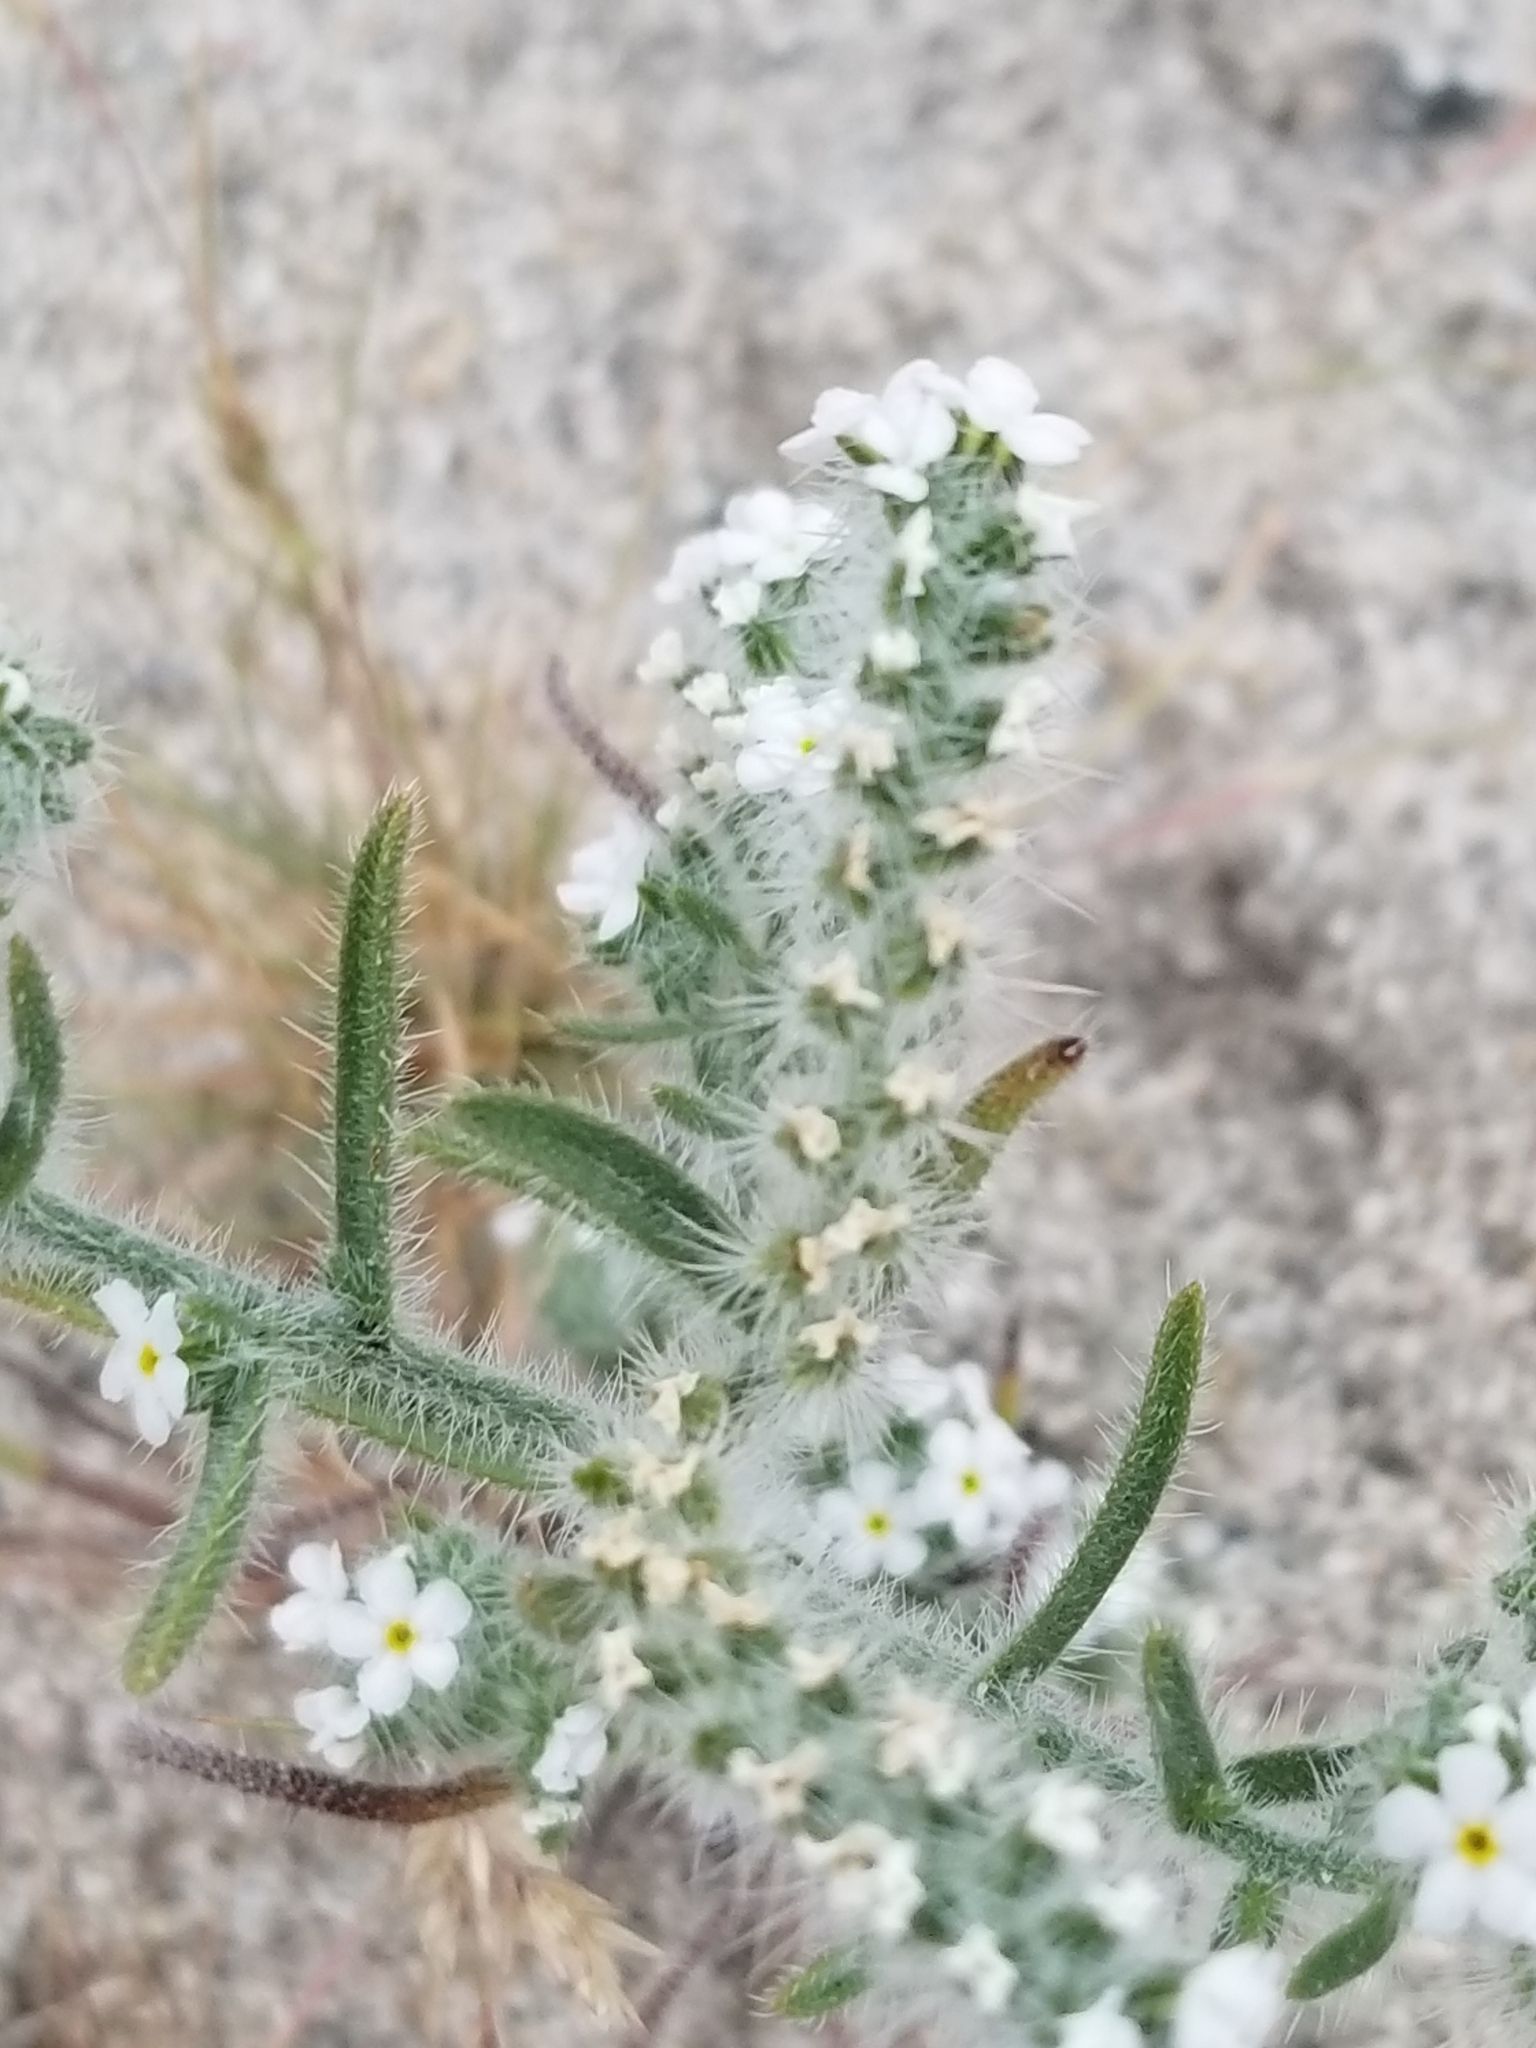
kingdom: Plantae
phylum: Tracheophyta
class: Magnoliopsida
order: Boraginales
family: Boraginaceae
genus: Johnstonella
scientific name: Johnstonella angustifolia
